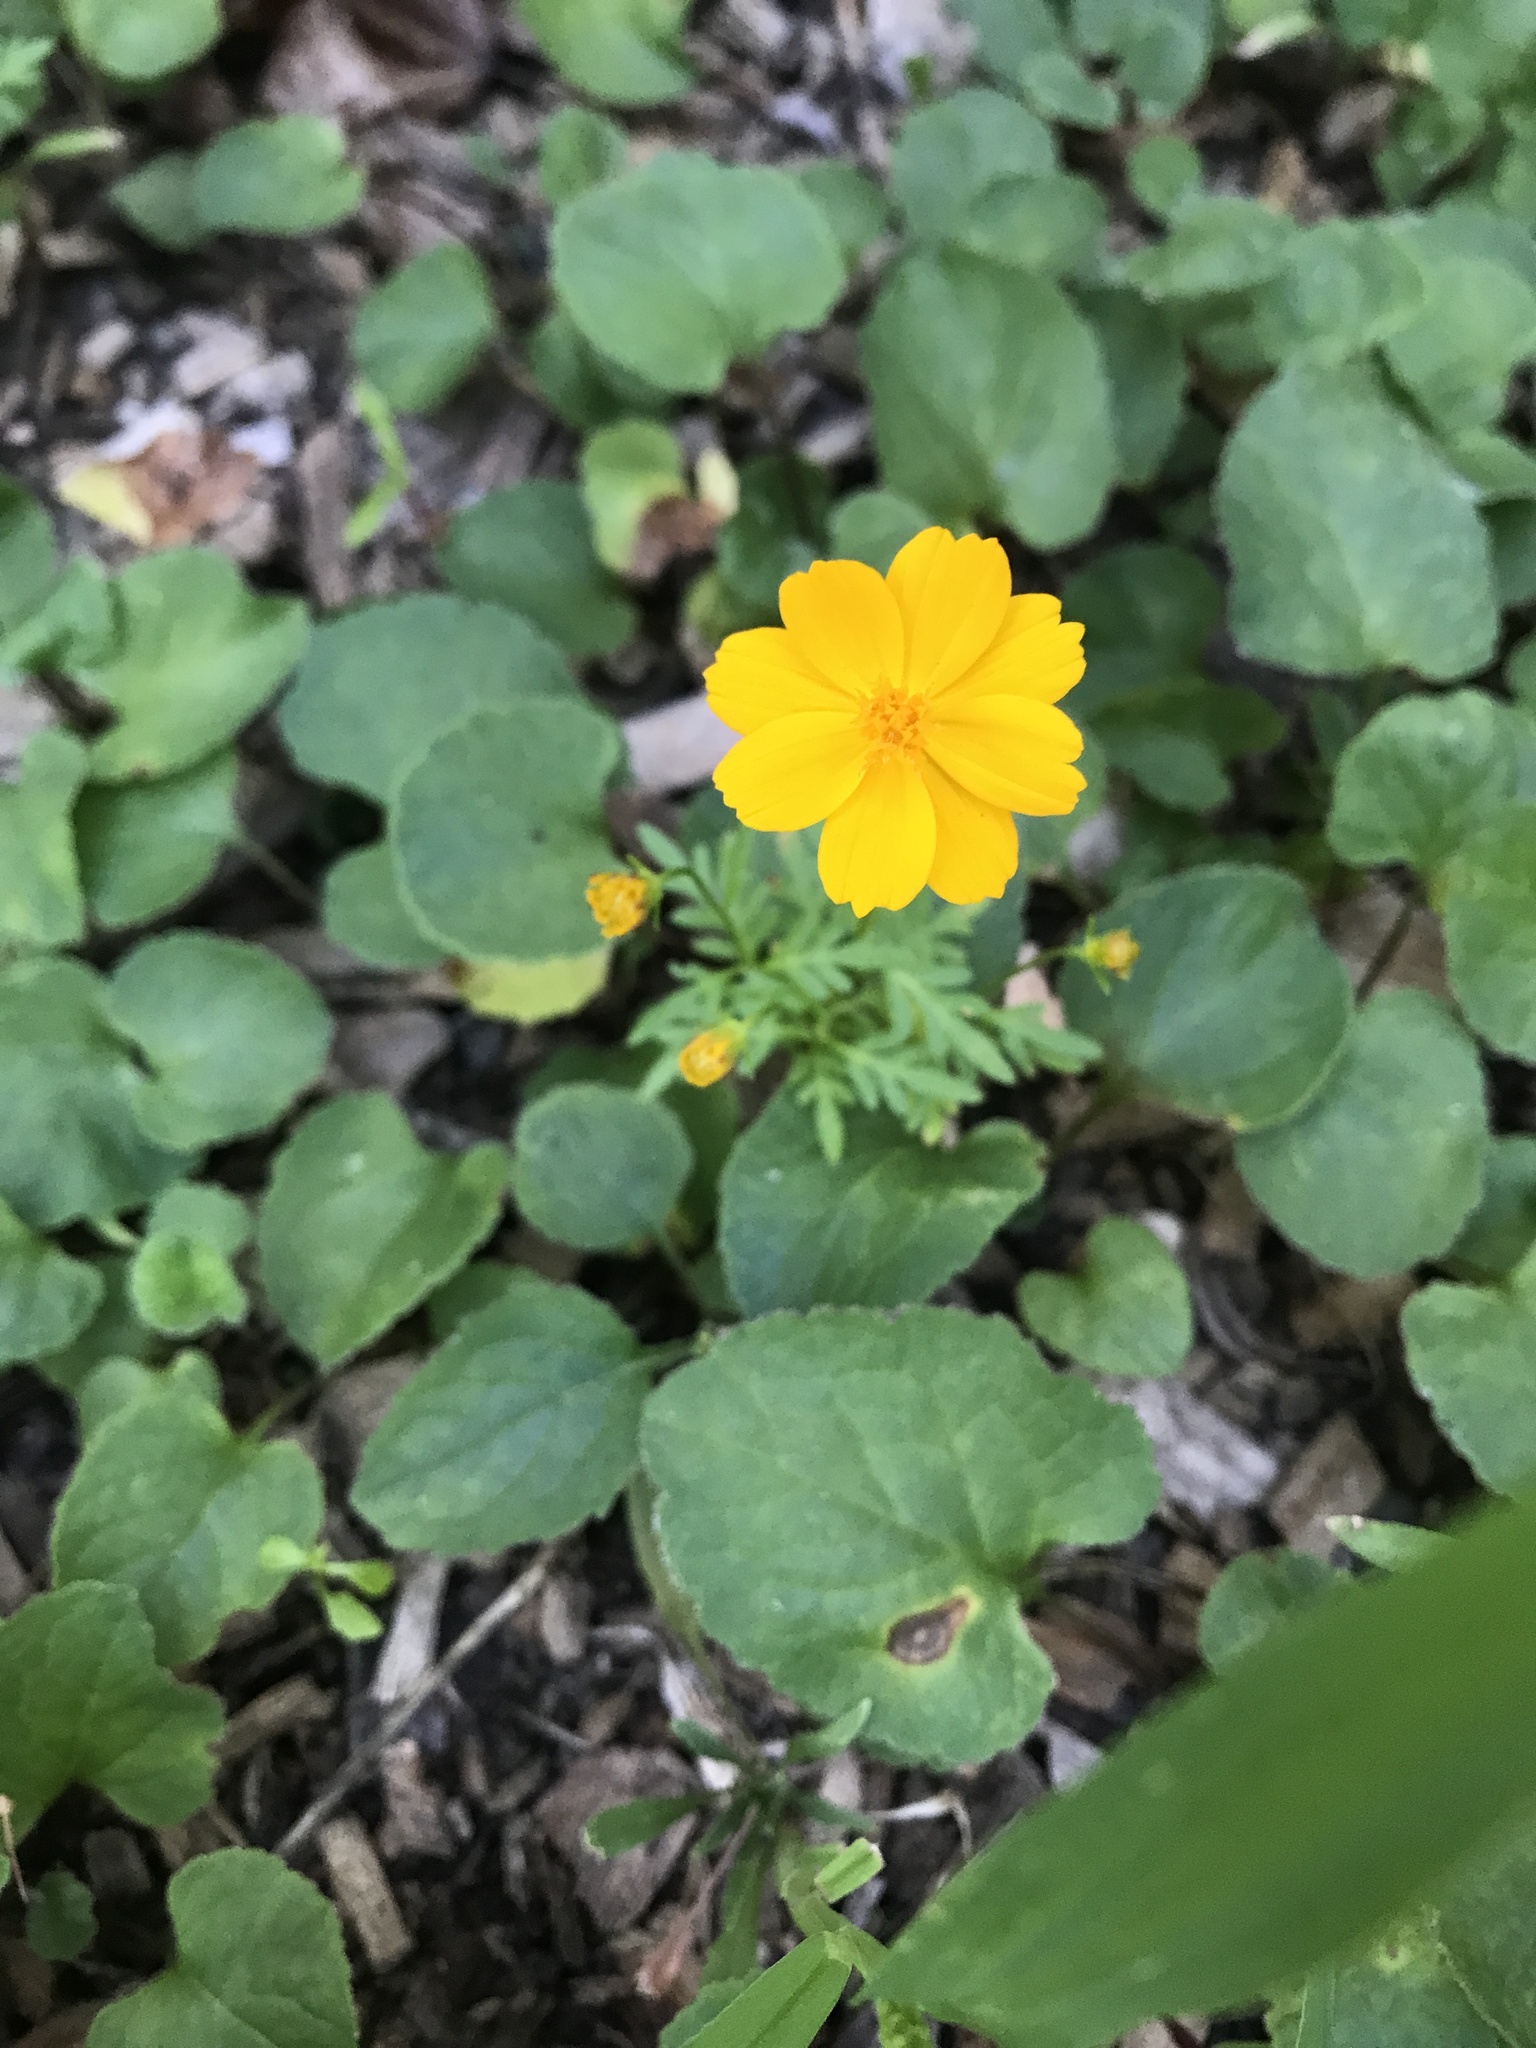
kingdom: Plantae
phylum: Tracheophyta
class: Magnoliopsida
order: Asterales
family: Asteraceae
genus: Cosmos
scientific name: Cosmos sulphureus
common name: Sulphur cosmos
